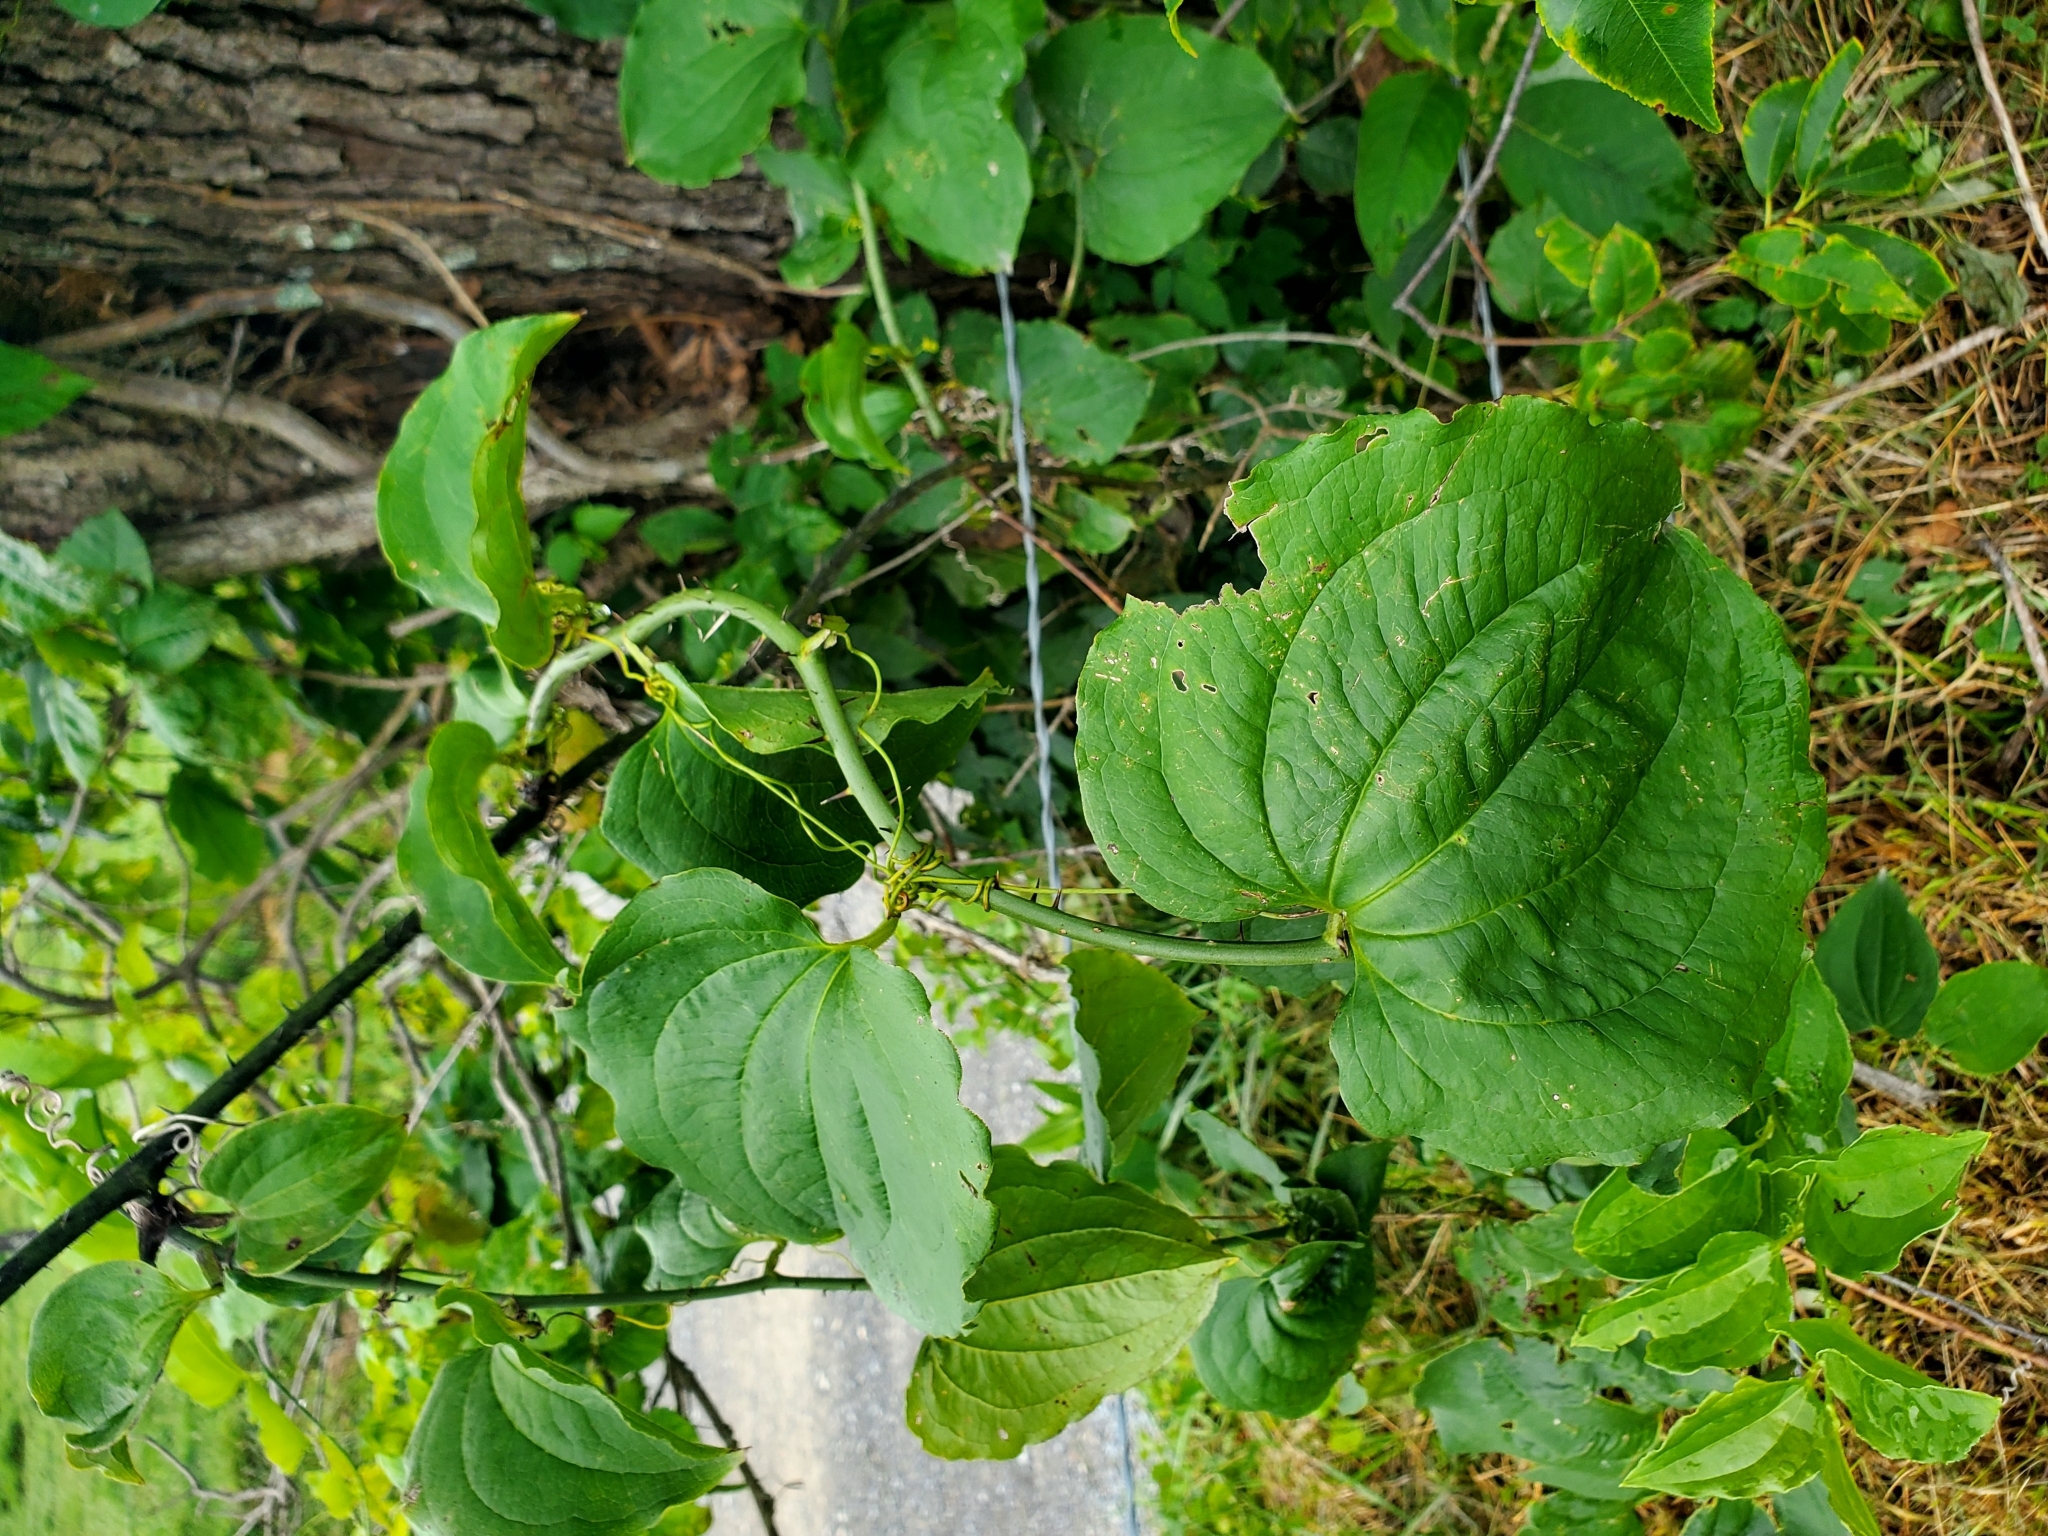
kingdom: Plantae
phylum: Tracheophyta
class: Liliopsida
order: Liliales
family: Smilacaceae
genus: Smilax
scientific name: Smilax tamnoides
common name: Hellfetter
